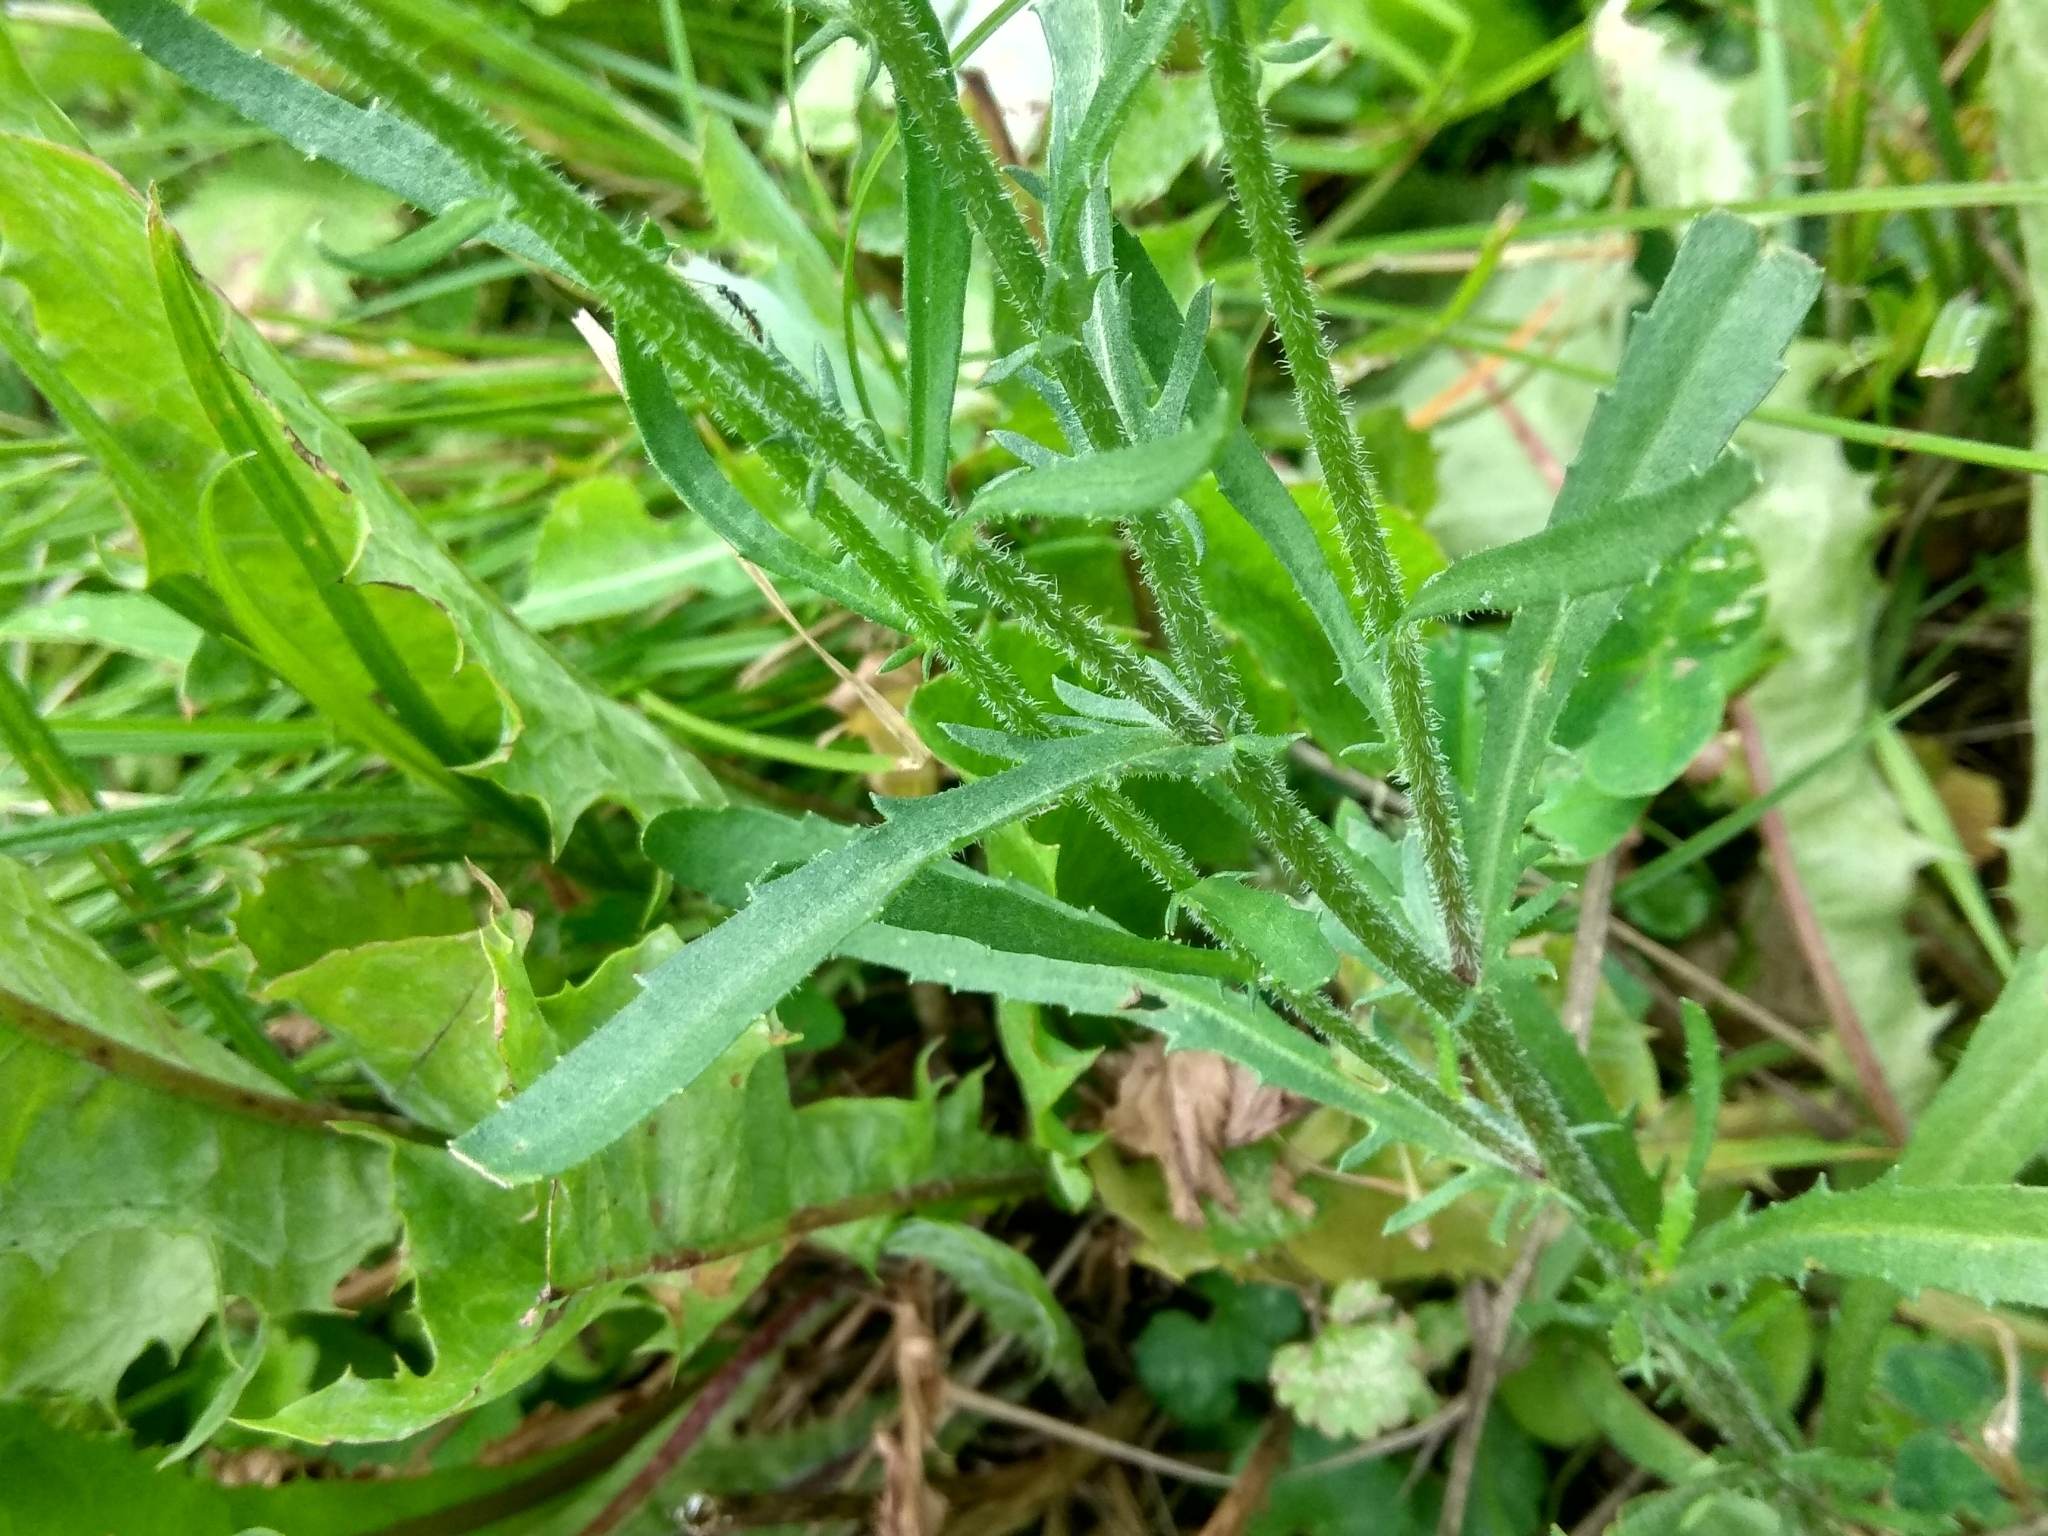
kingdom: Plantae
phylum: Tracheophyta
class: Magnoliopsida
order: Asterales
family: Asteraceae
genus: Leucanthemum
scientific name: Leucanthemum vulgare
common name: Oxeye daisy
